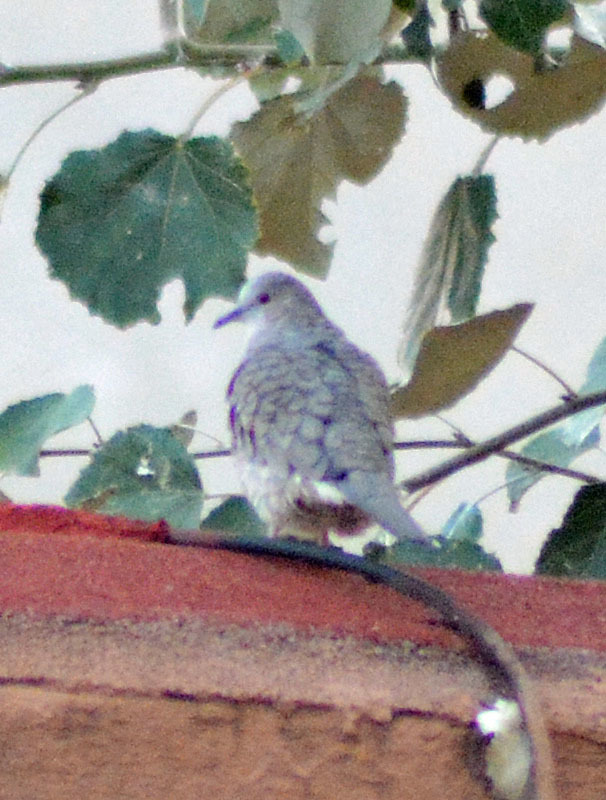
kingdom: Animalia
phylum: Chordata
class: Aves
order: Columbiformes
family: Columbidae
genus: Columbina
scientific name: Columbina inca
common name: Inca dove
